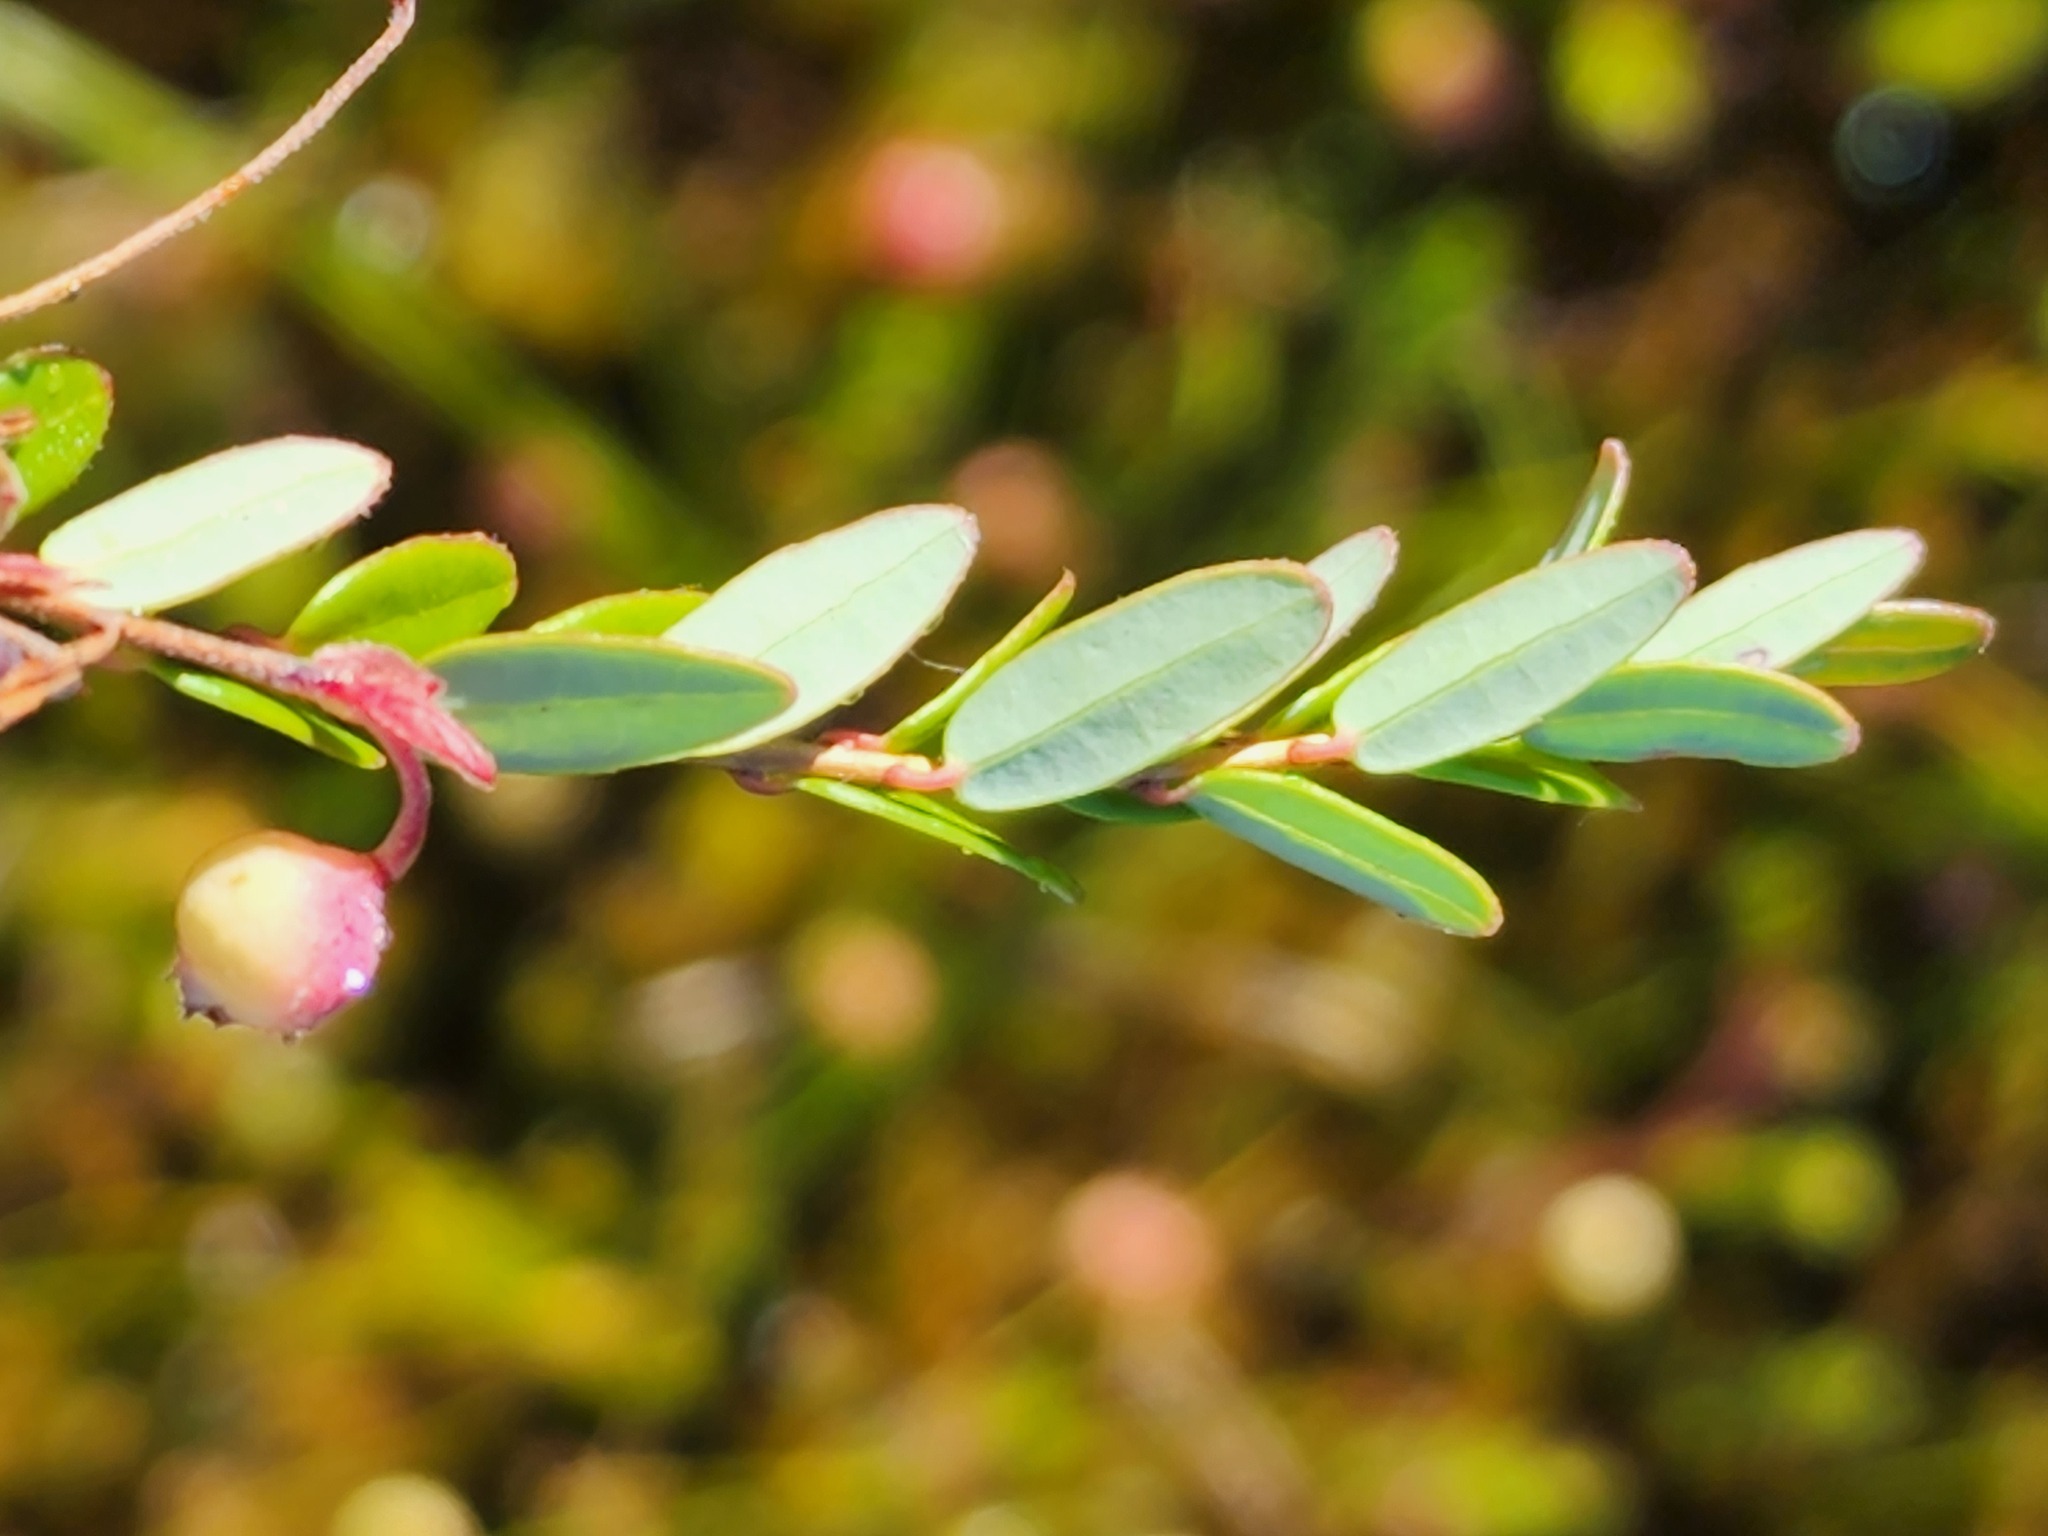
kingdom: Plantae
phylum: Tracheophyta
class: Magnoliopsida
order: Ericales
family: Ericaceae
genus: Vaccinium
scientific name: Vaccinium macrocarpon
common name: American cranberry
